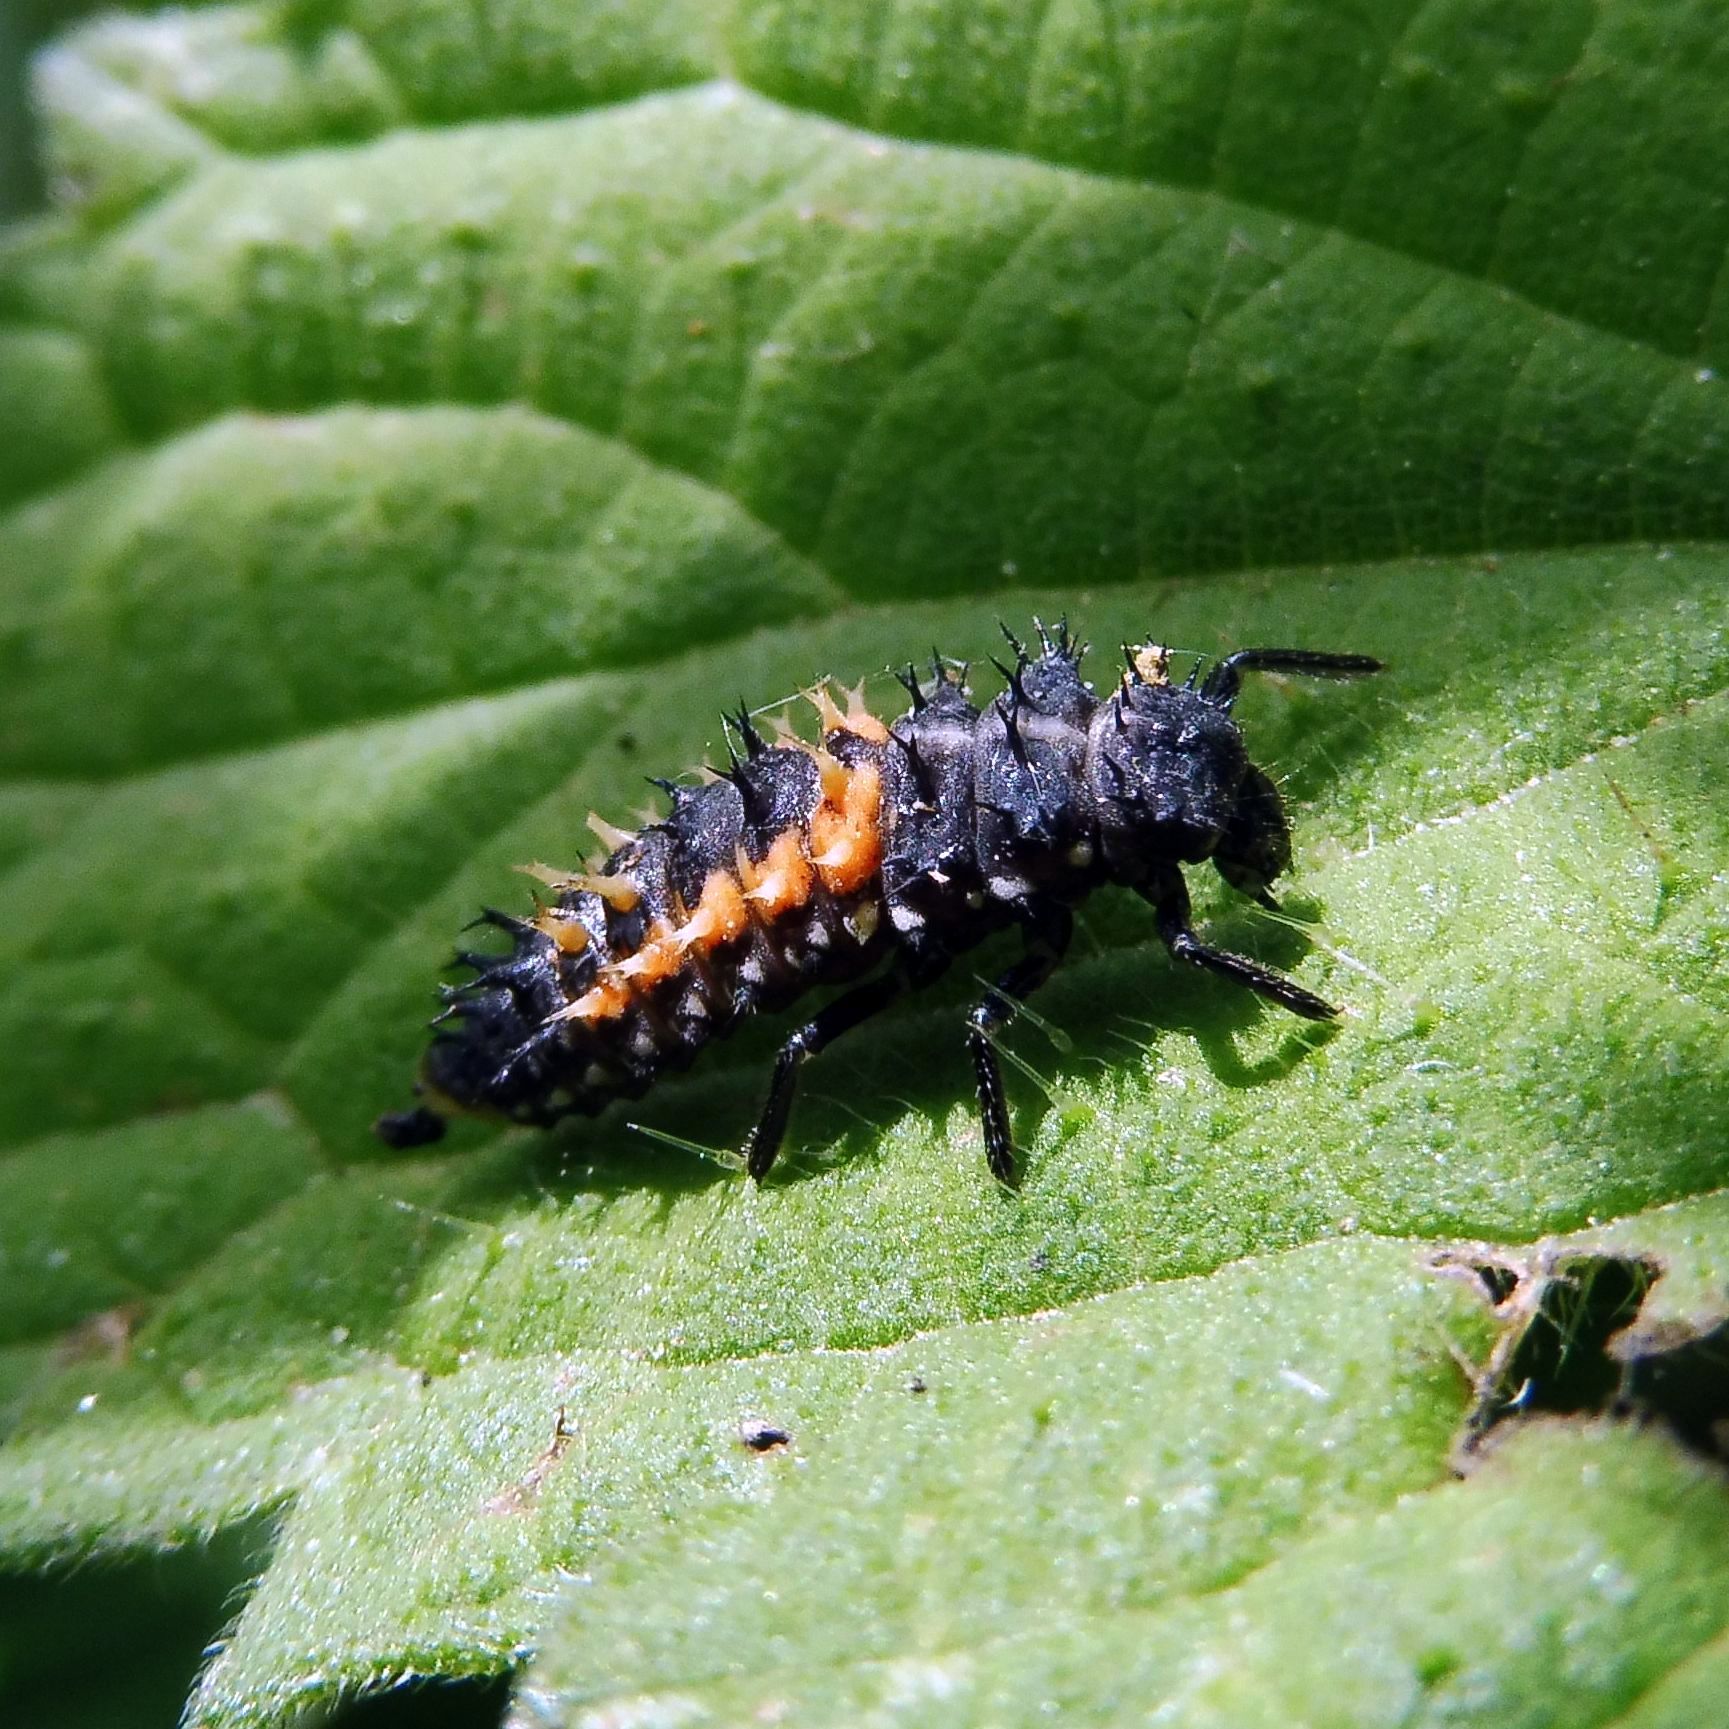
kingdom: Animalia
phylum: Arthropoda
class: Insecta
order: Coleoptera
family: Coccinellidae
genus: Harmonia
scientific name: Harmonia axyridis
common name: Harlequin ladybird
